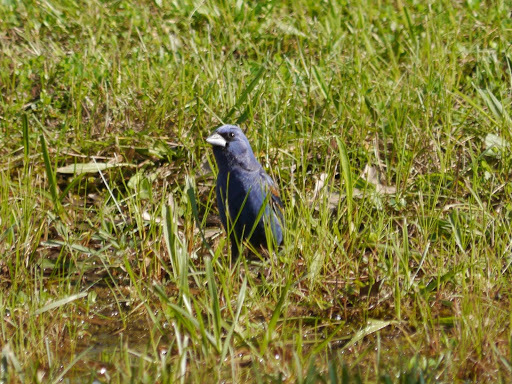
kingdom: Animalia
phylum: Chordata
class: Aves
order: Passeriformes
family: Cardinalidae
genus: Passerina
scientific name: Passerina caerulea
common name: Blue grosbeak
